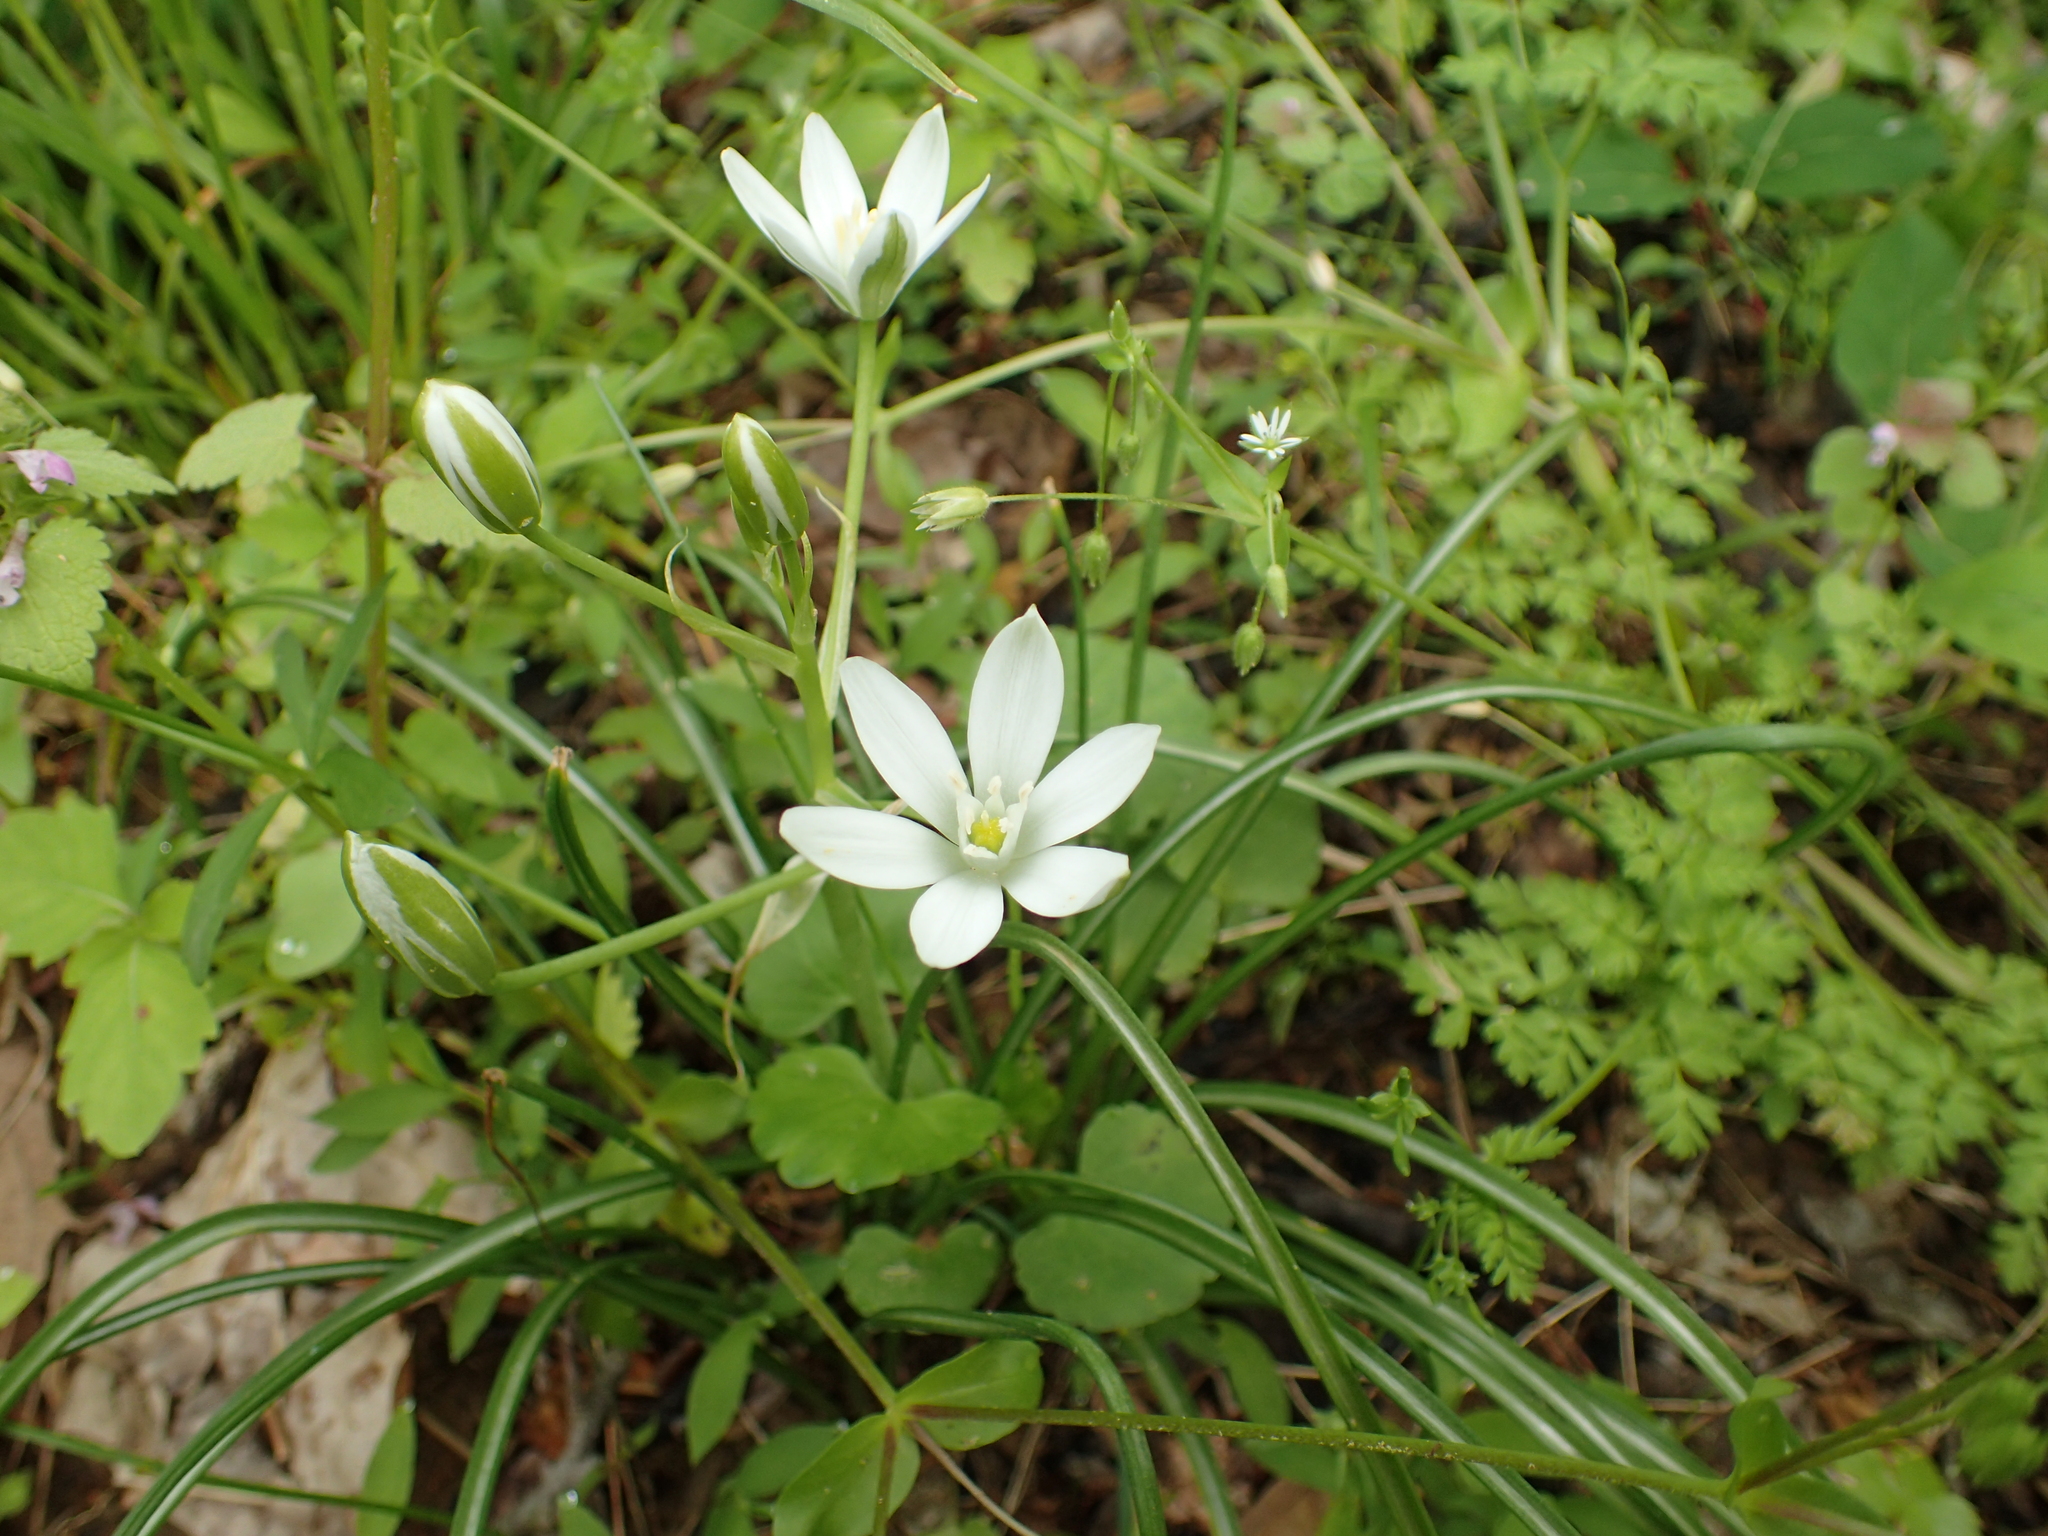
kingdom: Plantae
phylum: Tracheophyta
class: Liliopsida
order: Asparagales
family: Asparagaceae
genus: Ornithogalum
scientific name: Ornithogalum umbellatum
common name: Garden star-of-bethlehem
